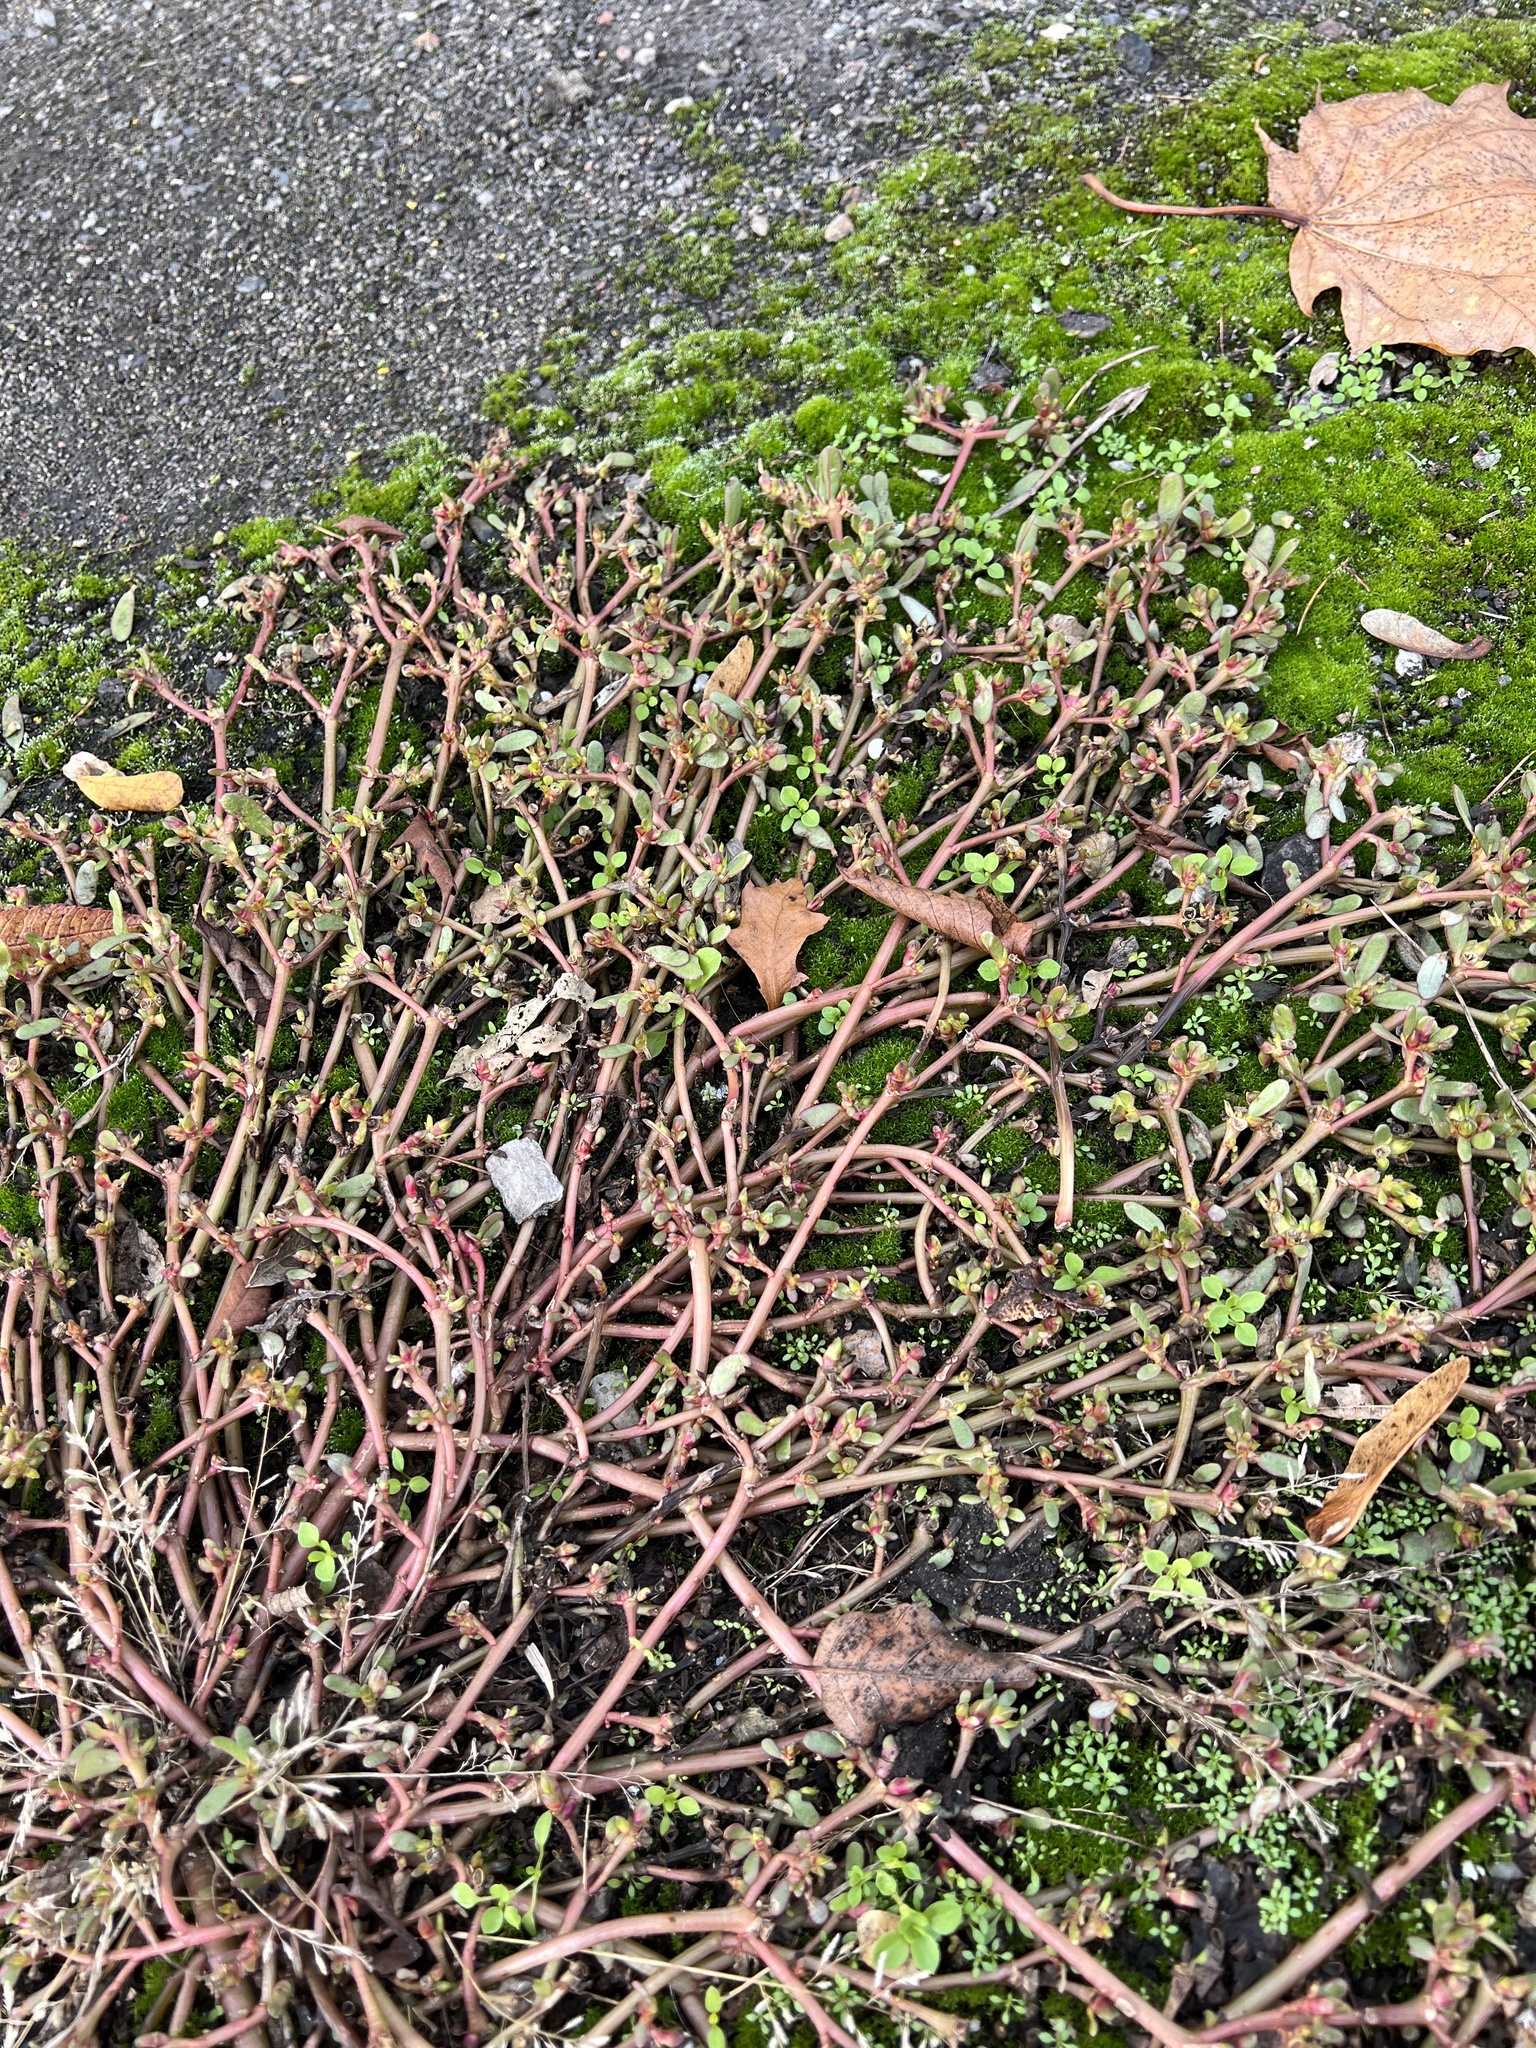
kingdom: Plantae
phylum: Tracheophyta
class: Magnoliopsida
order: Caryophyllales
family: Portulacaceae
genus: Portulaca
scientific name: Portulaca oleracea
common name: Common purslane
